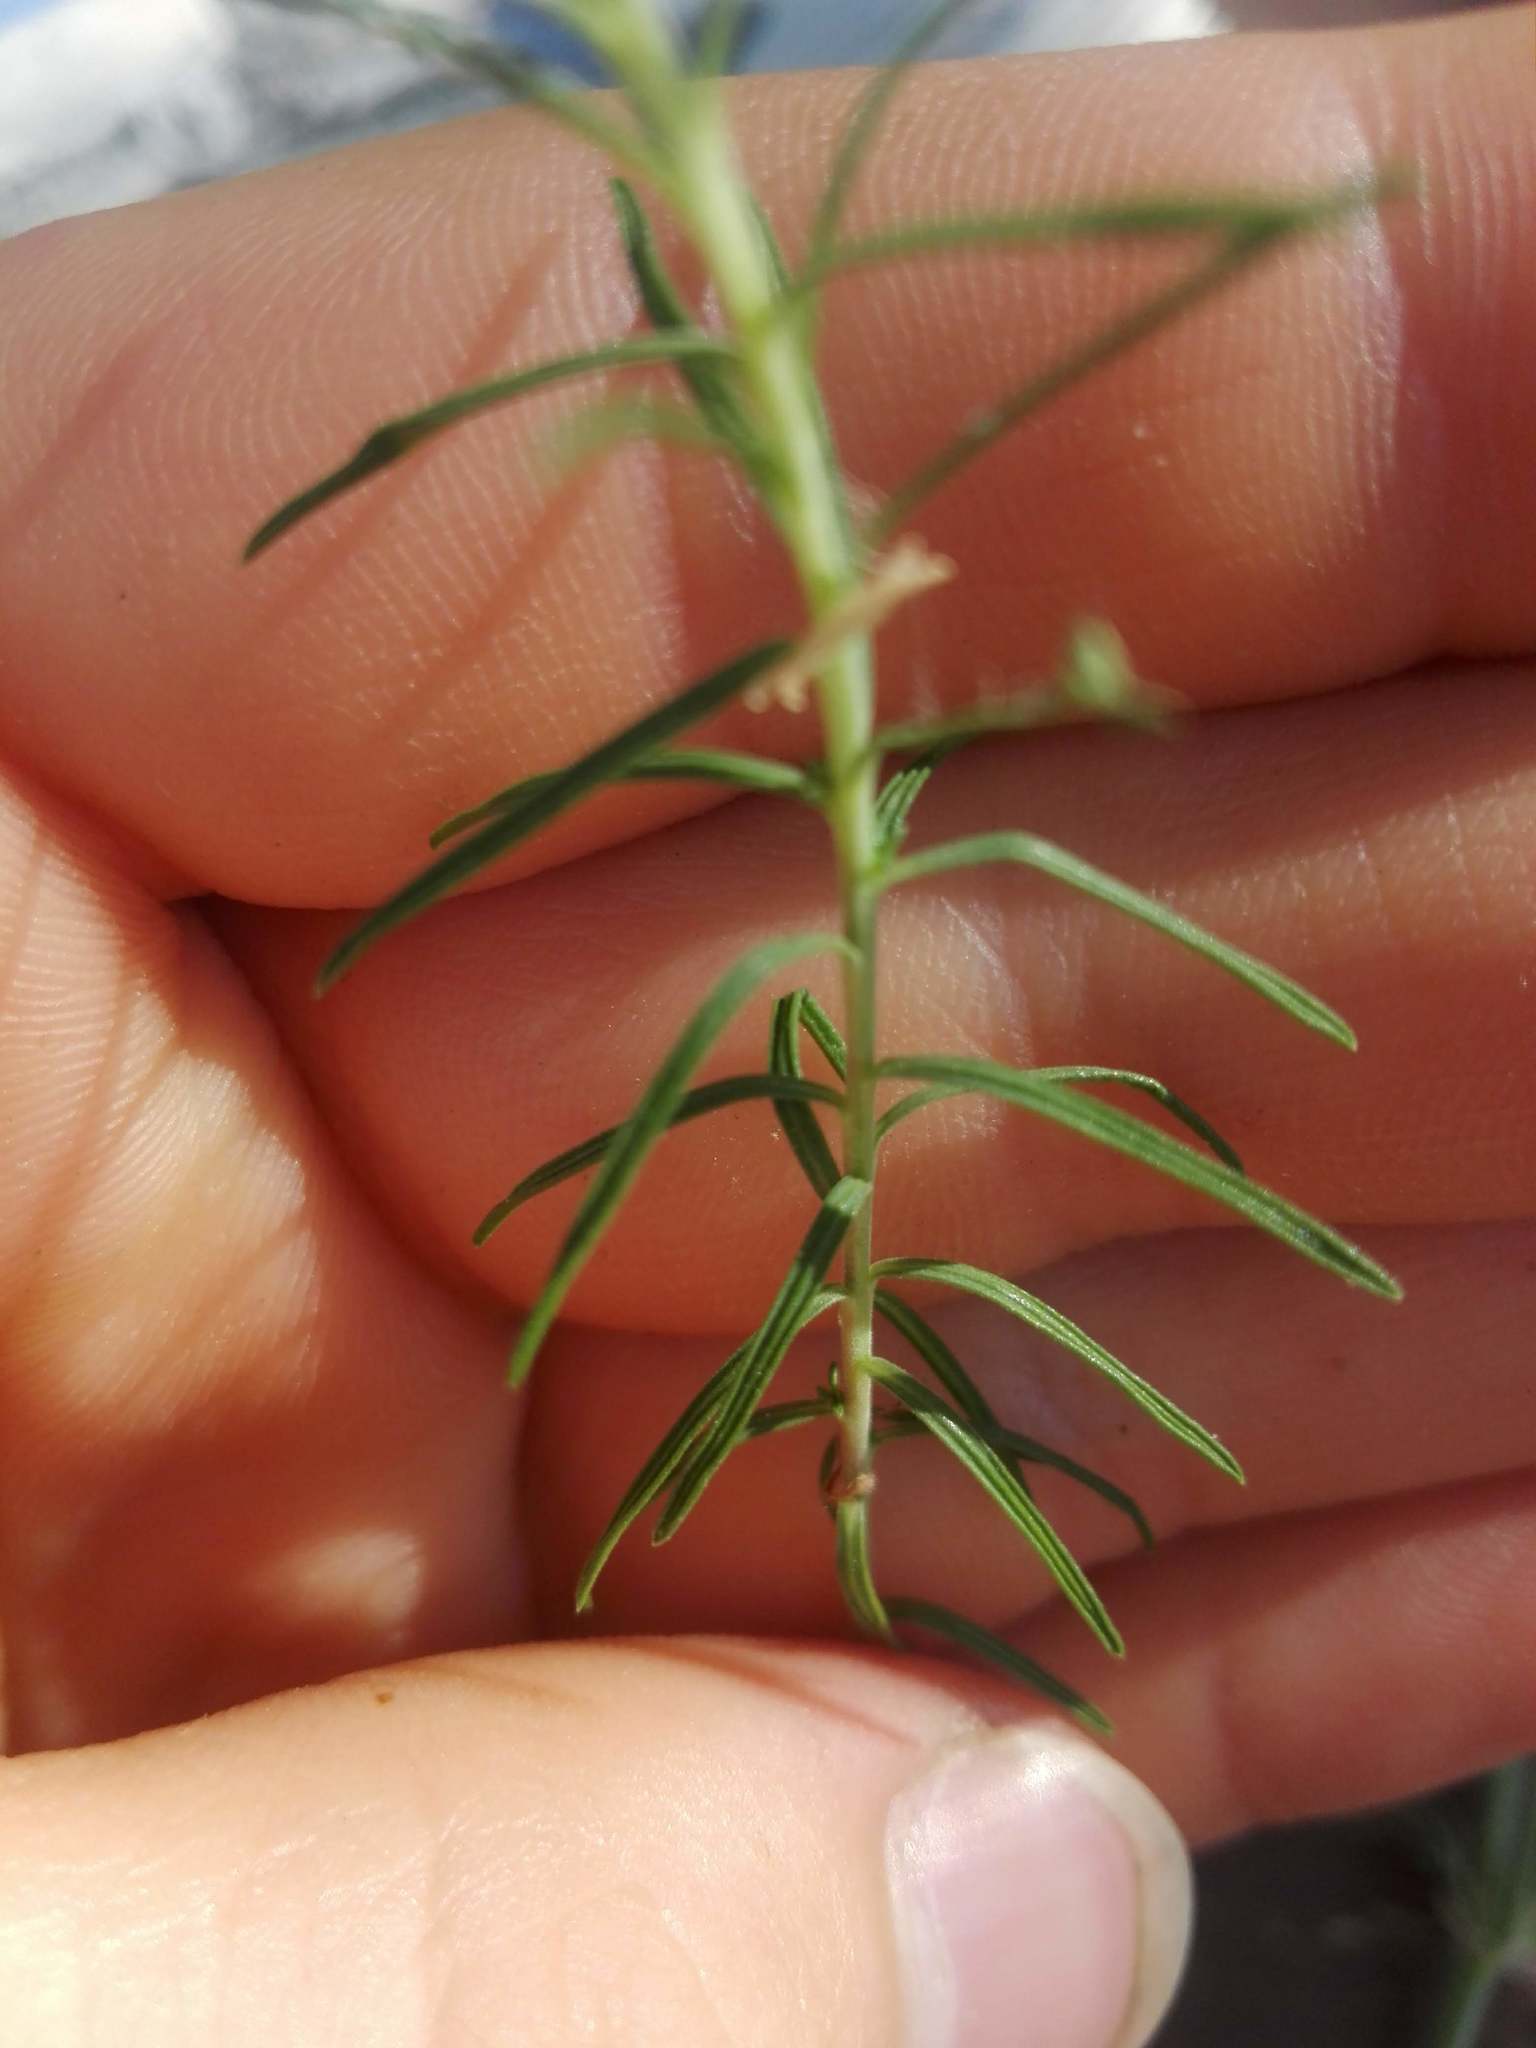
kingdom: Plantae
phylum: Tracheophyta
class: Magnoliopsida
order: Malpighiales
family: Linaceae
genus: Linum
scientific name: Linum suffruticosum
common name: White flax
